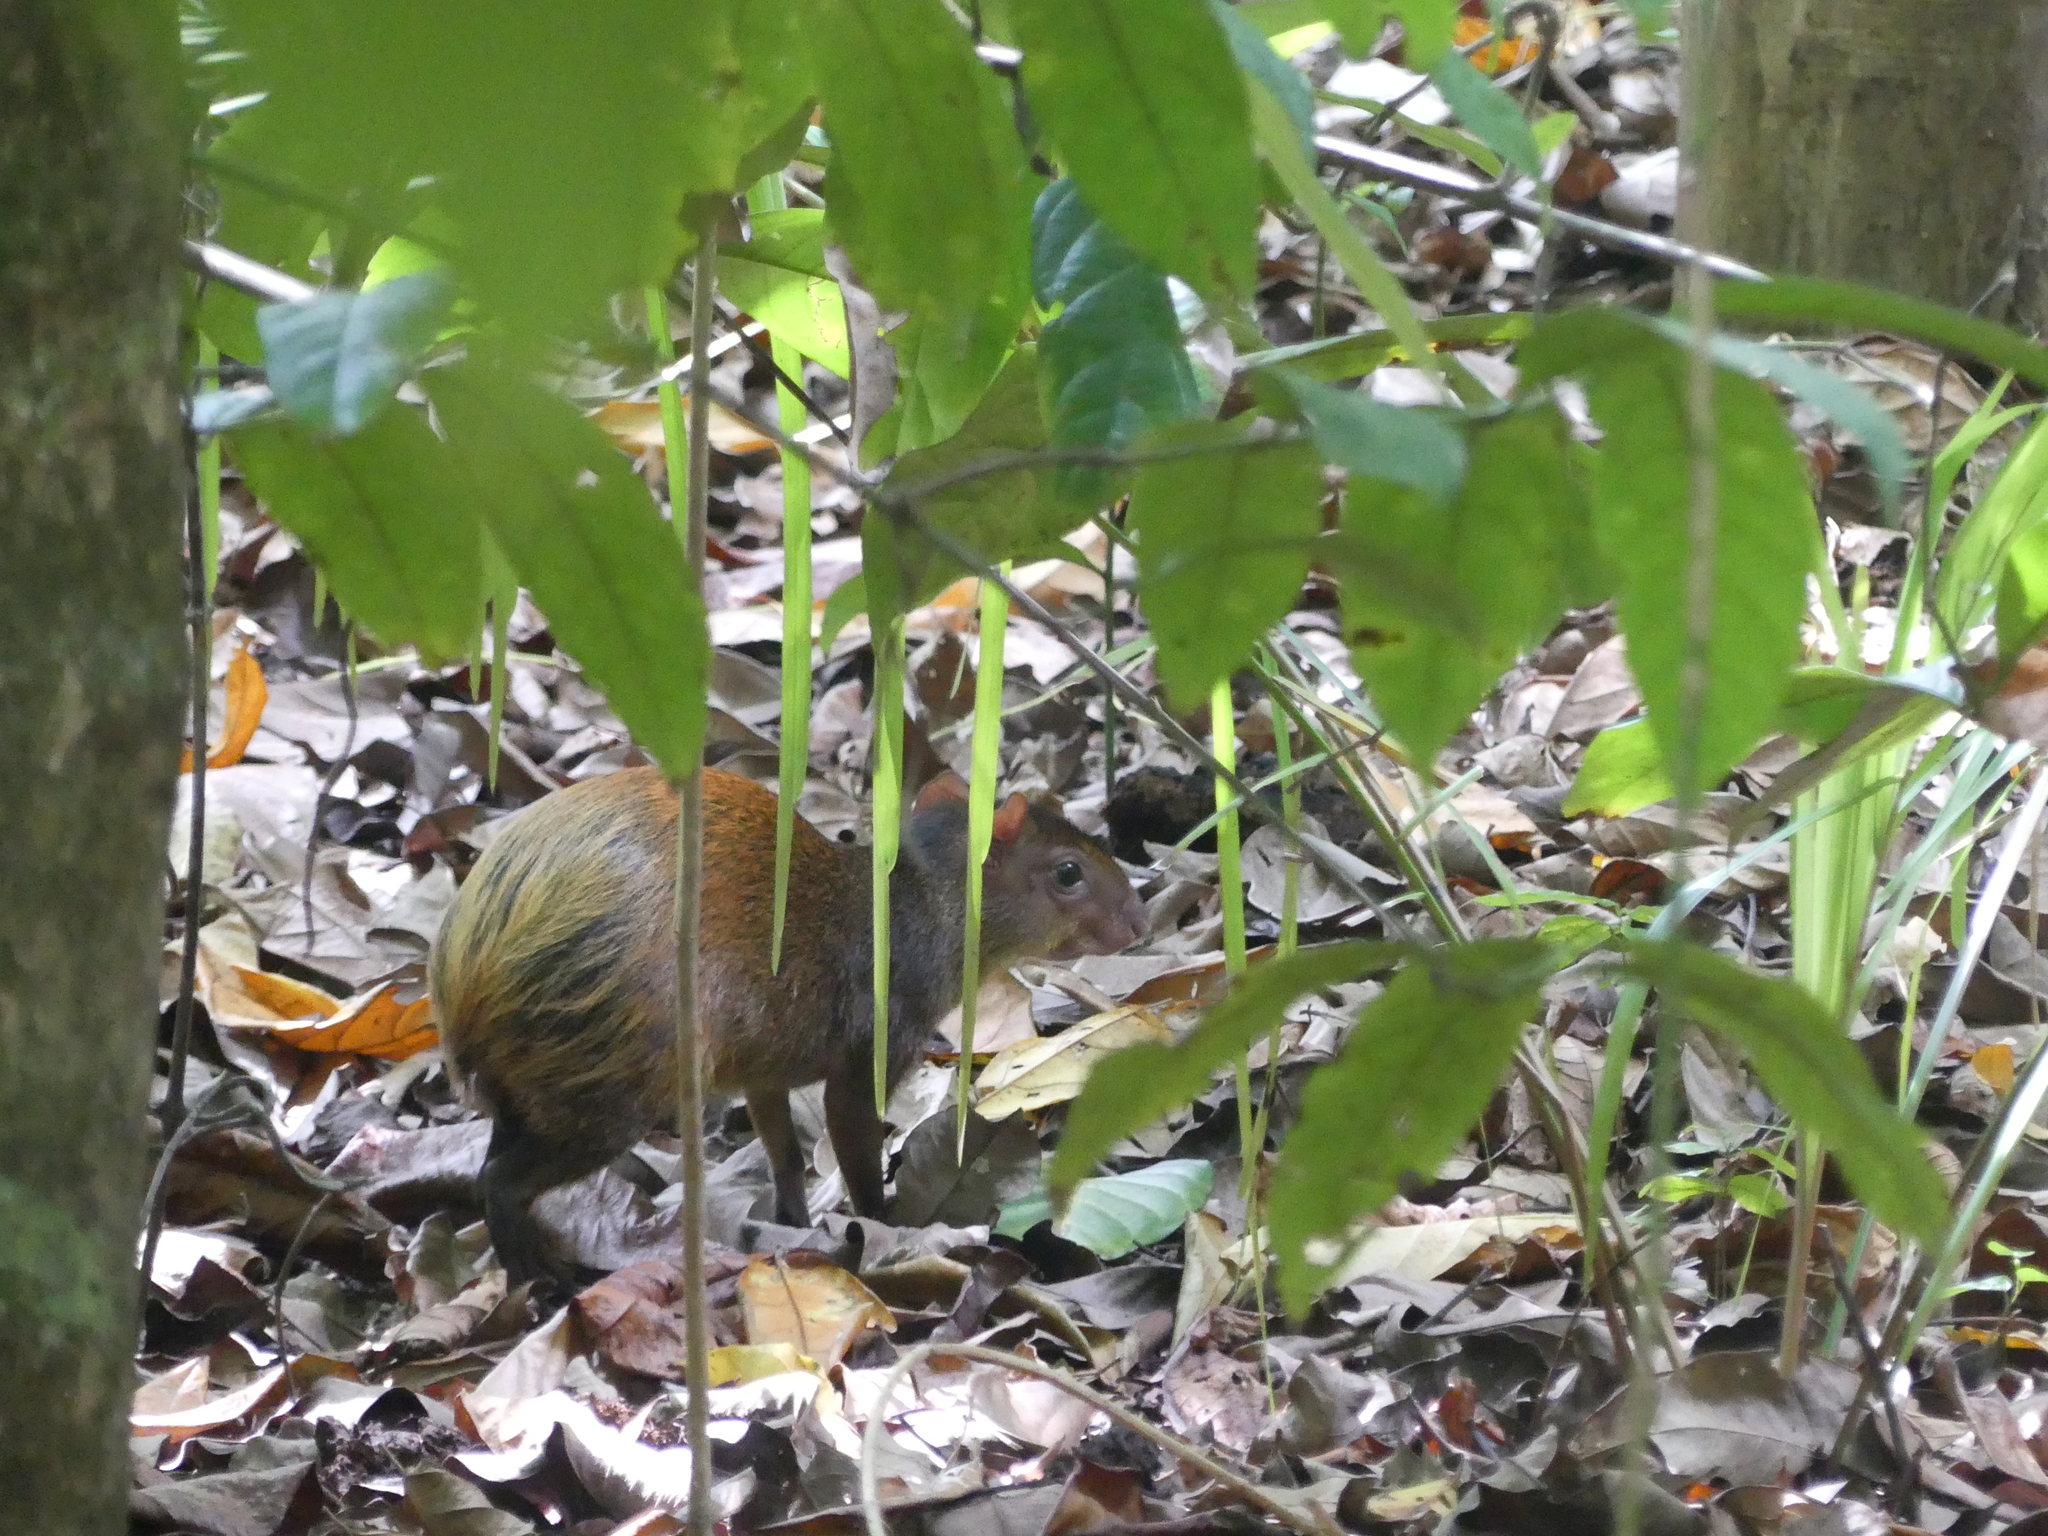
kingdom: Animalia
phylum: Chordata
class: Mammalia
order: Rodentia
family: Dasyproctidae
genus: Dasyprocta
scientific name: Dasyprocta punctata
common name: Central american agouti
